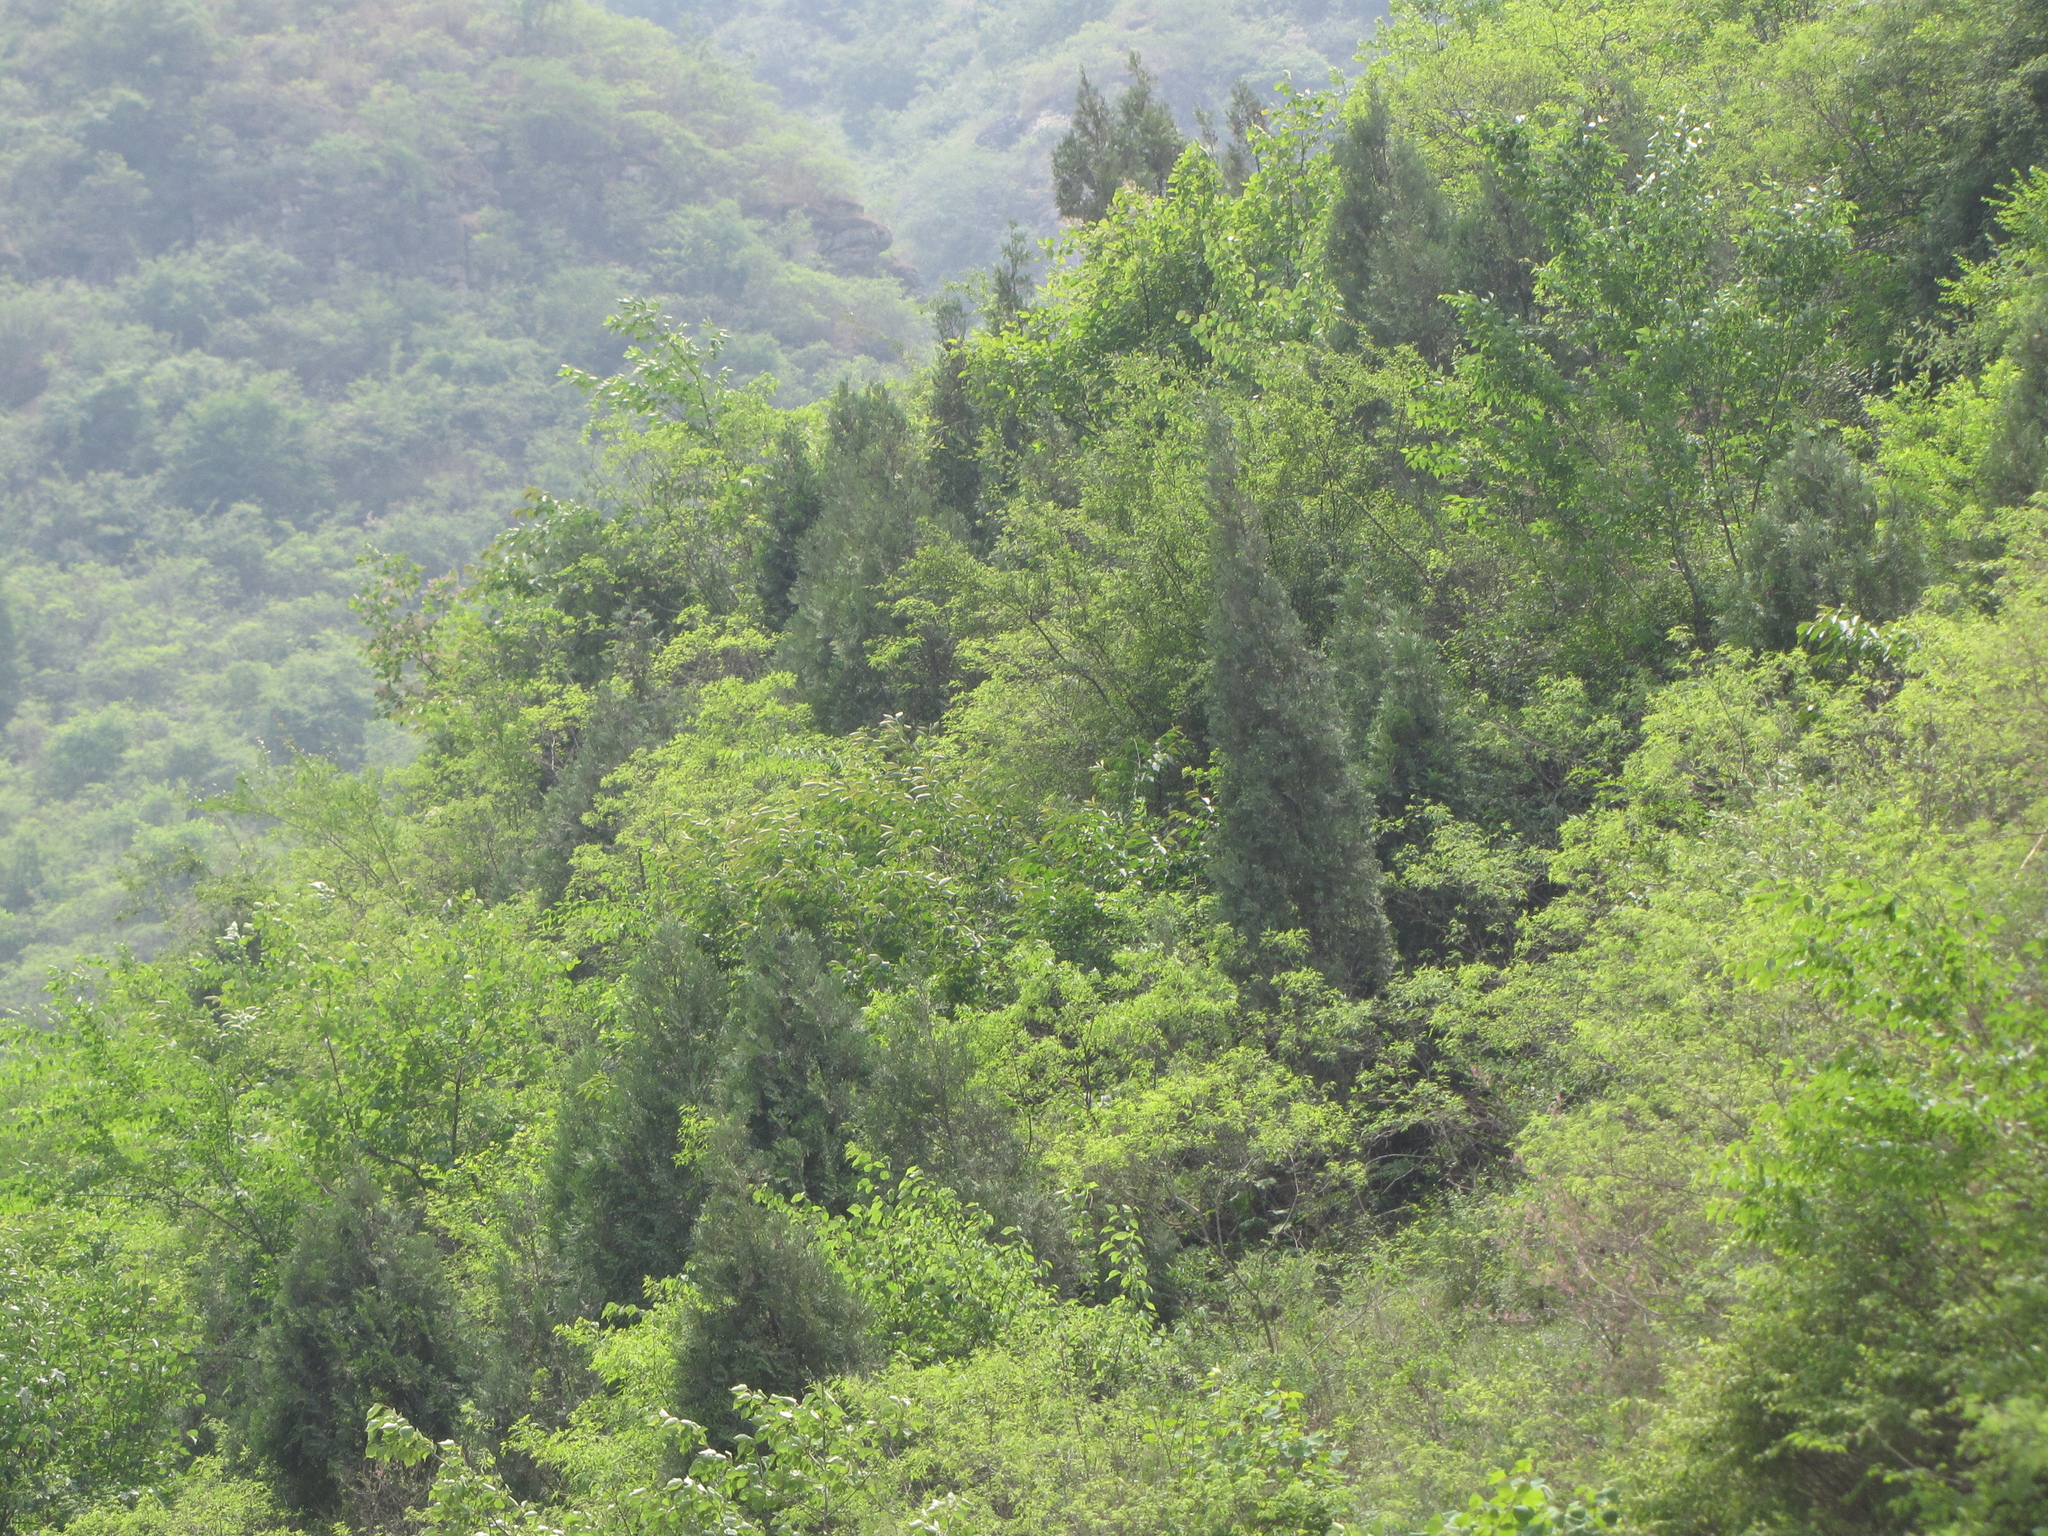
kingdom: Plantae
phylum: Tracheophyta
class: Pinopsida
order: Pinales
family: Cupressaceae
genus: Platycladus
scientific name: Platycladus orientalis
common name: Chinese thuja
